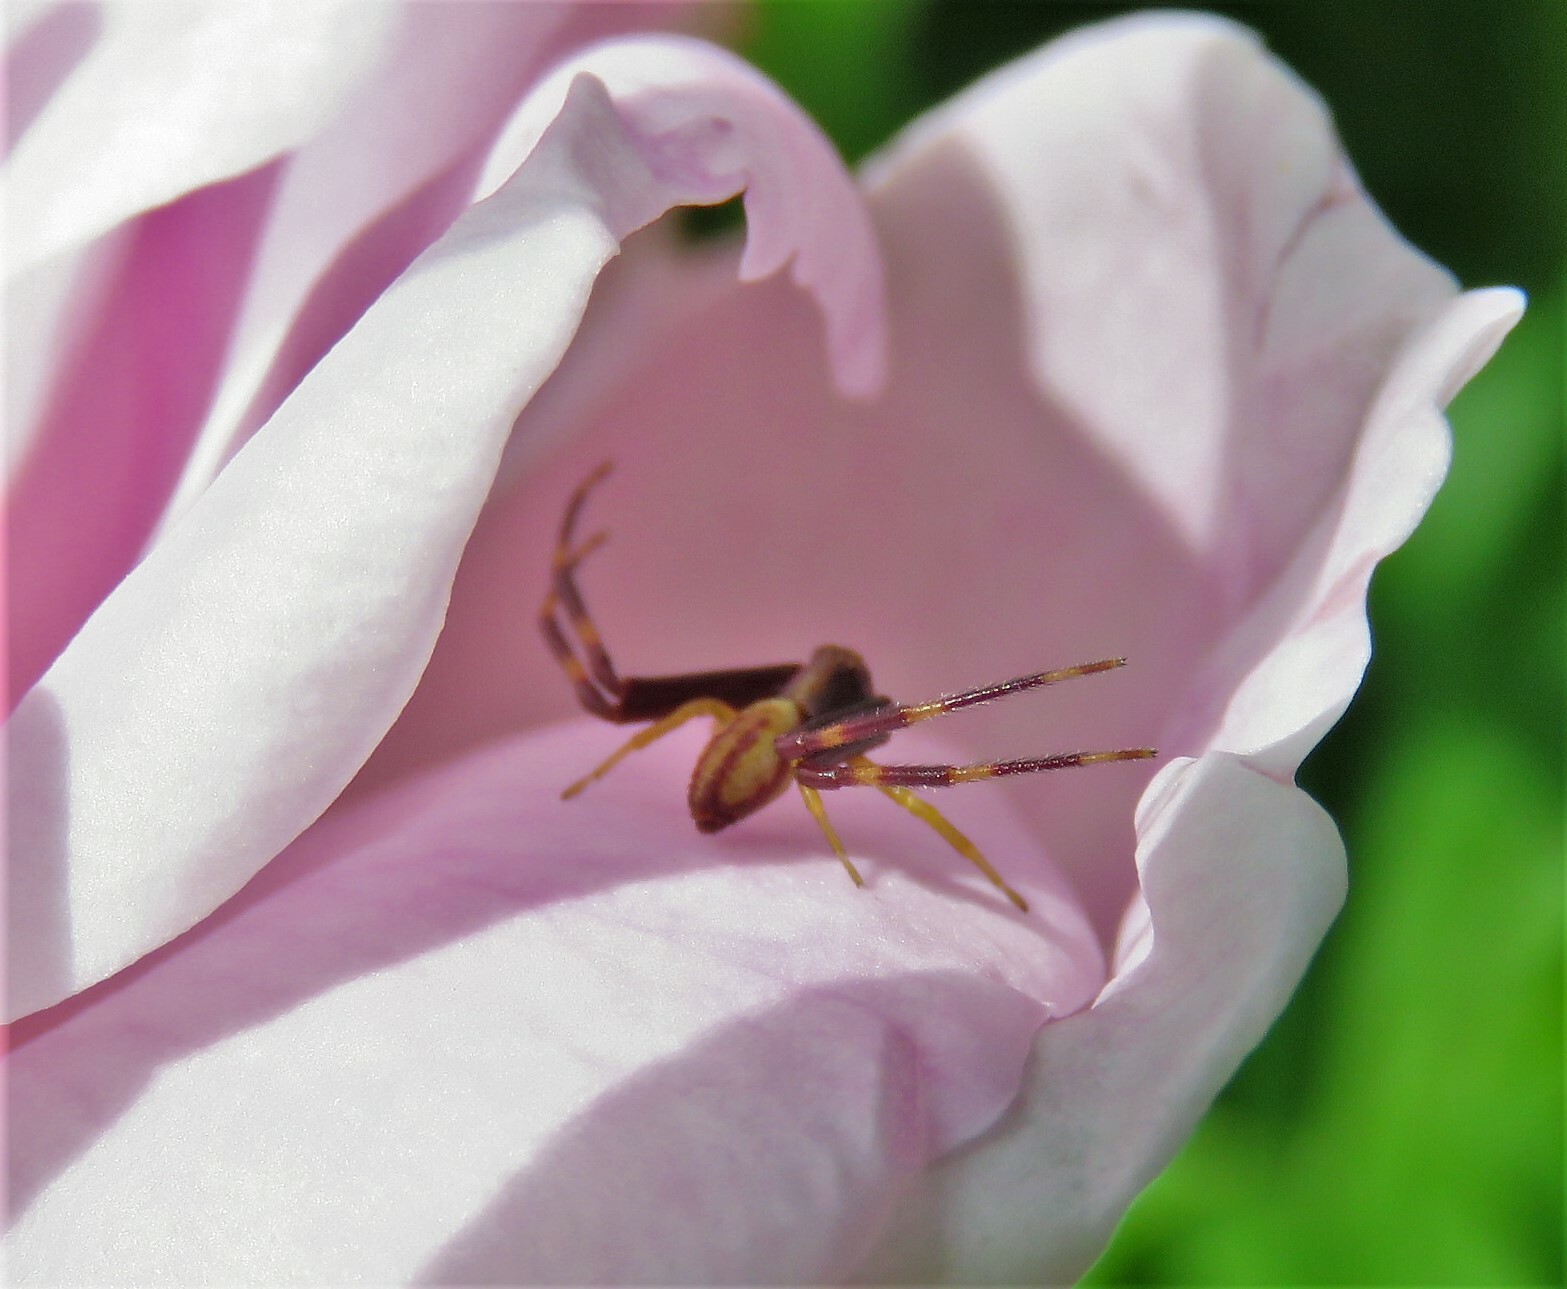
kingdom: Animalia
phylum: Arthropoda
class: Arachnida
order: Araneae
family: Thomisidae
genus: Misumena
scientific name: Misumena vatia
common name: Goldenrod crab spider
